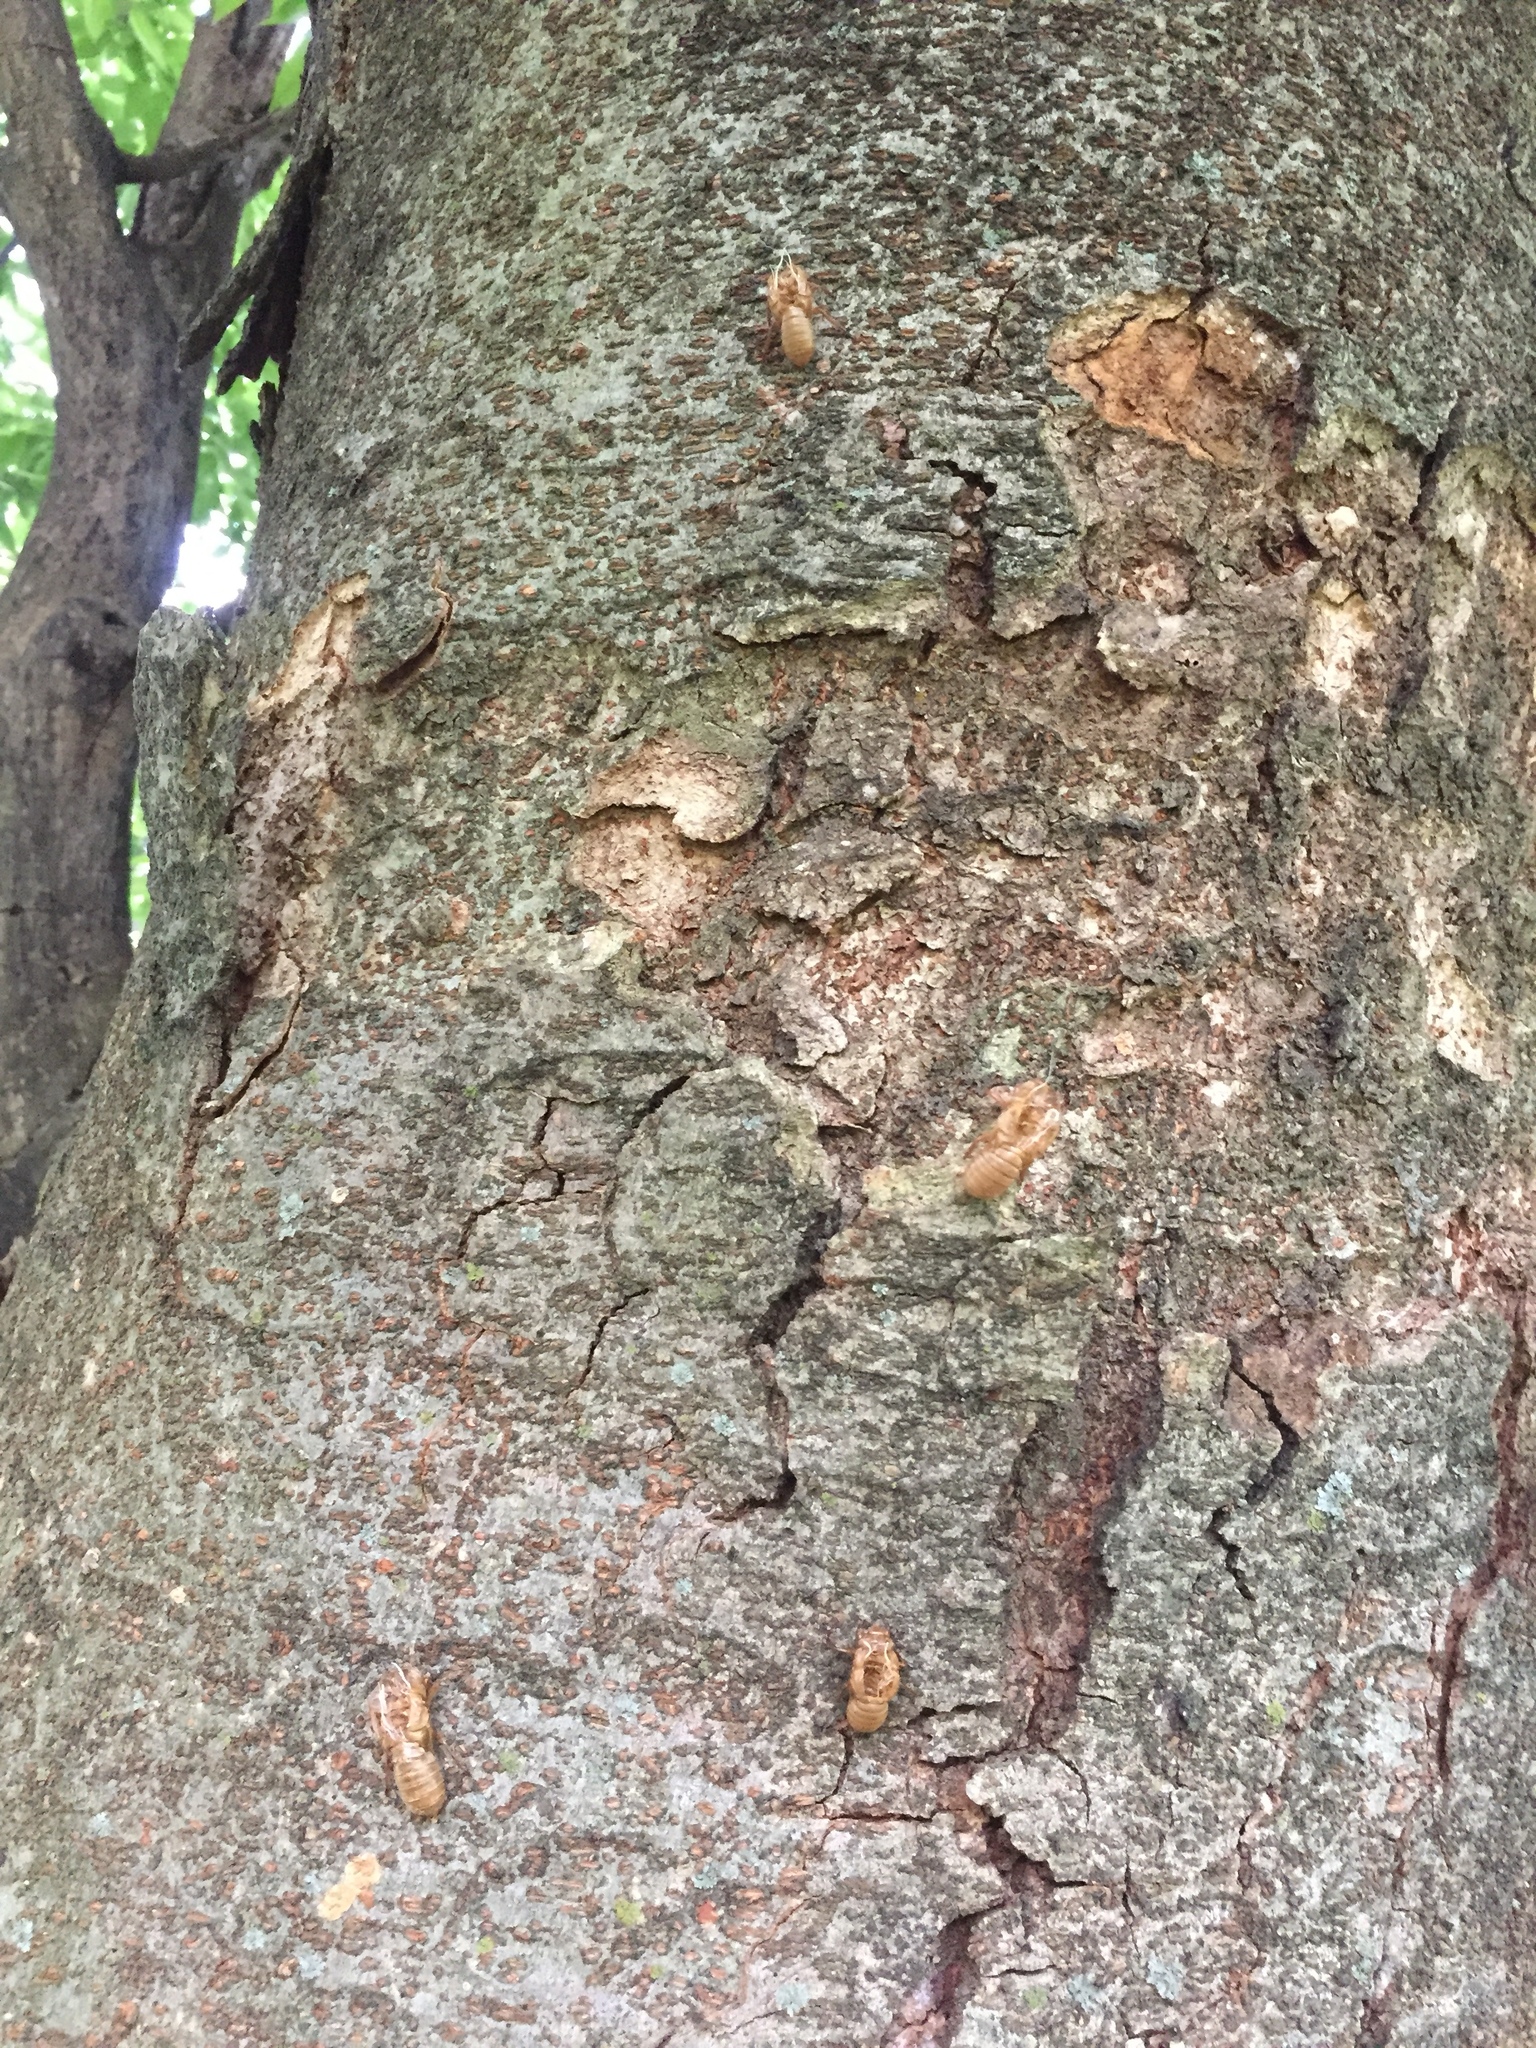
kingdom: Animalia
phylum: Arthropoda
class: Insecta
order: Hemiptera
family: Cicadidae
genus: Magicicada
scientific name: Magicicada
